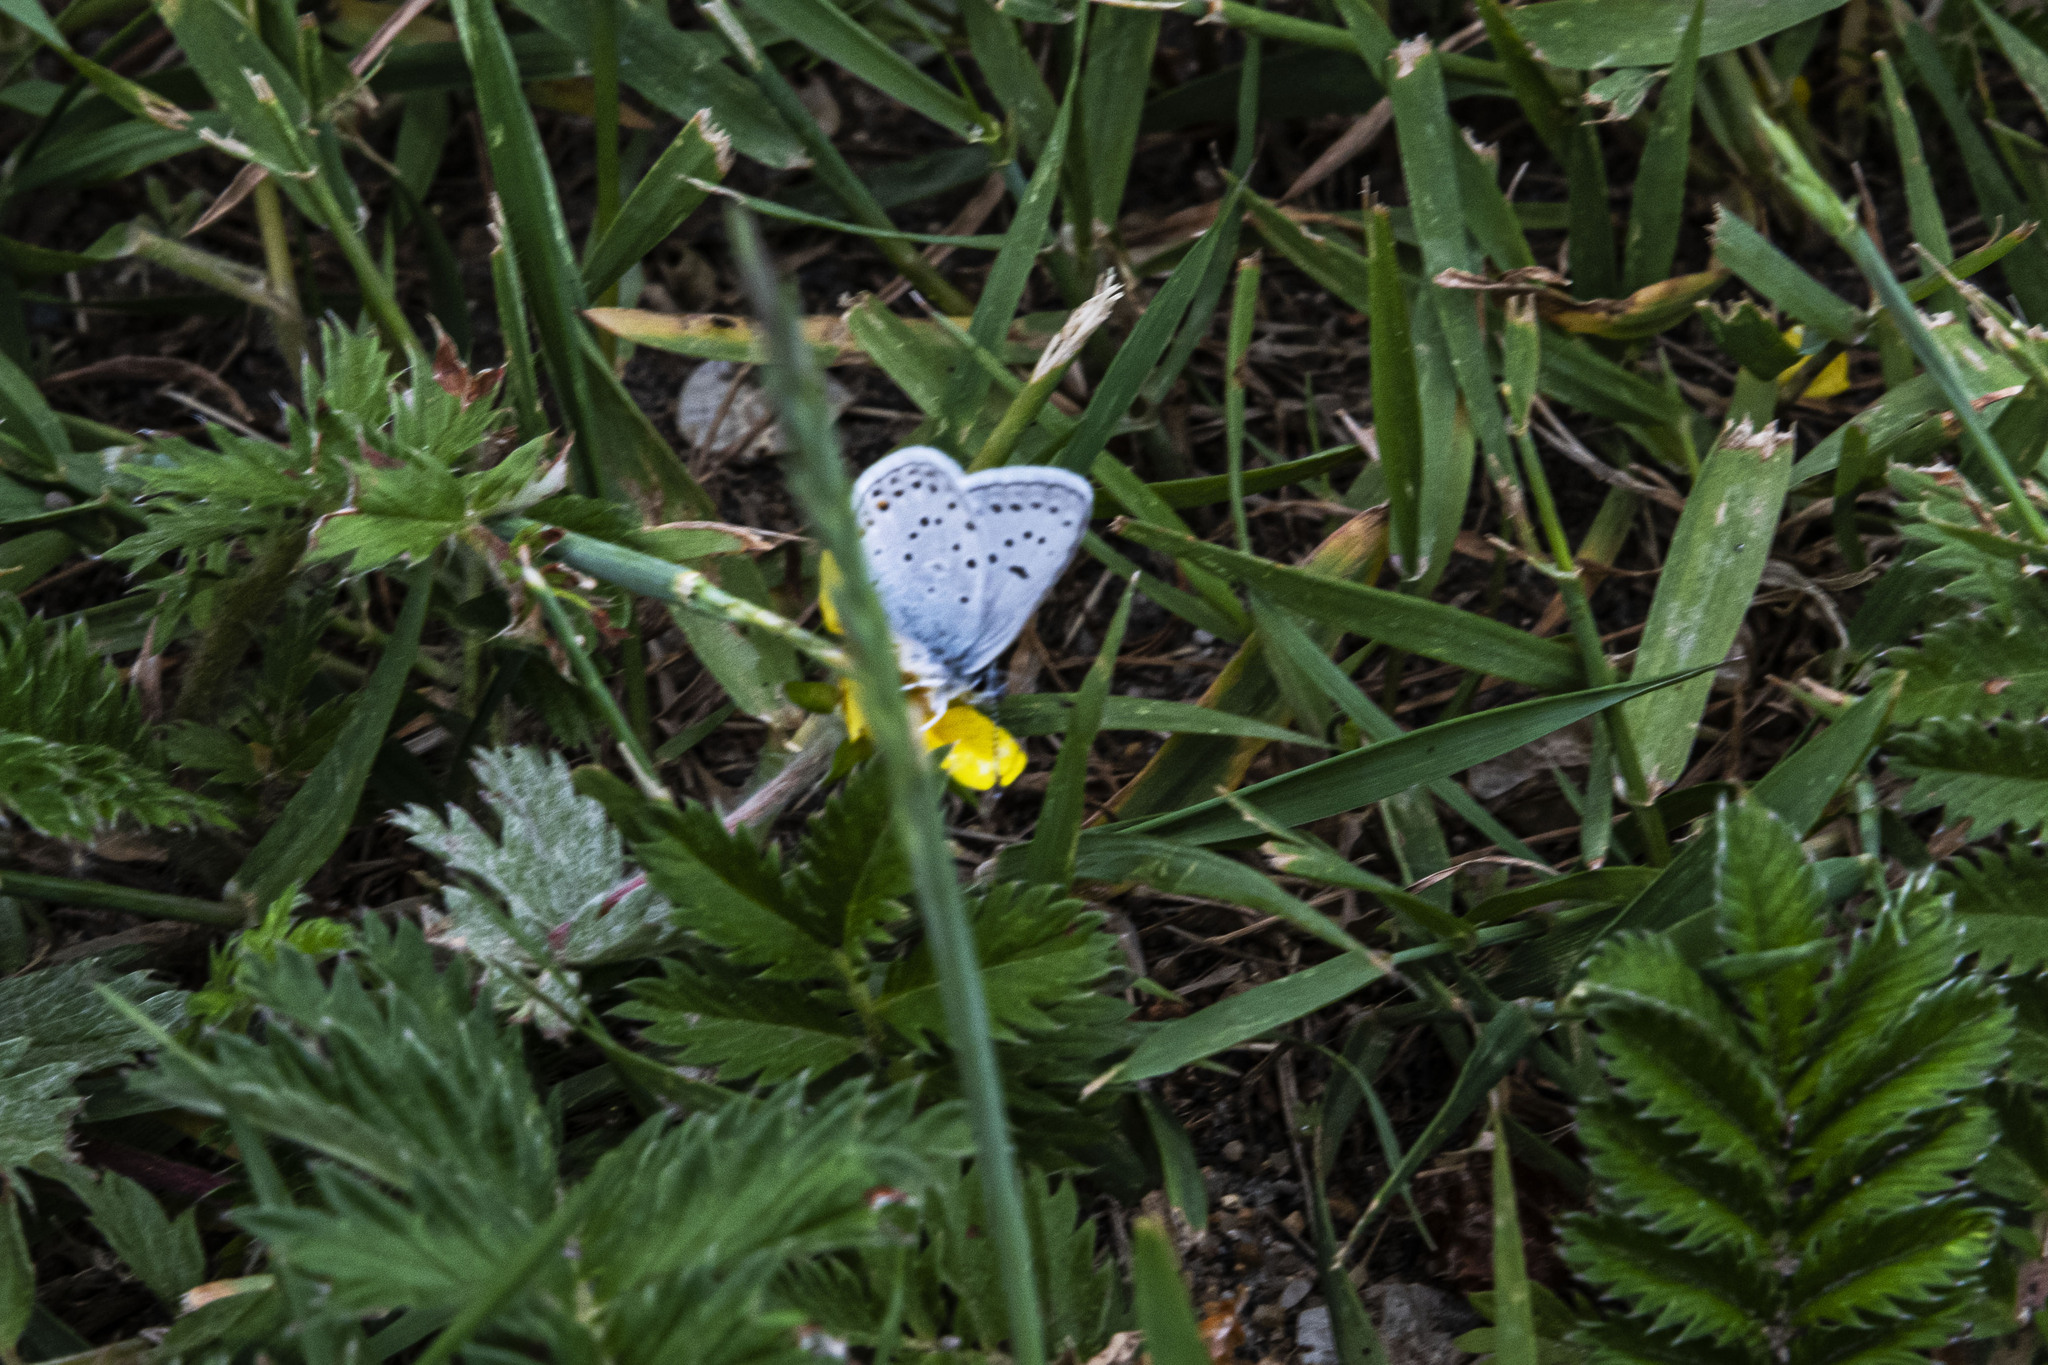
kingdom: Animalia
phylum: Arthropoda
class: Insecta
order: Lepidoptera
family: Lycaenidae
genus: Icaricia
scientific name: Icaricia saepiolus
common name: Greenish blue
